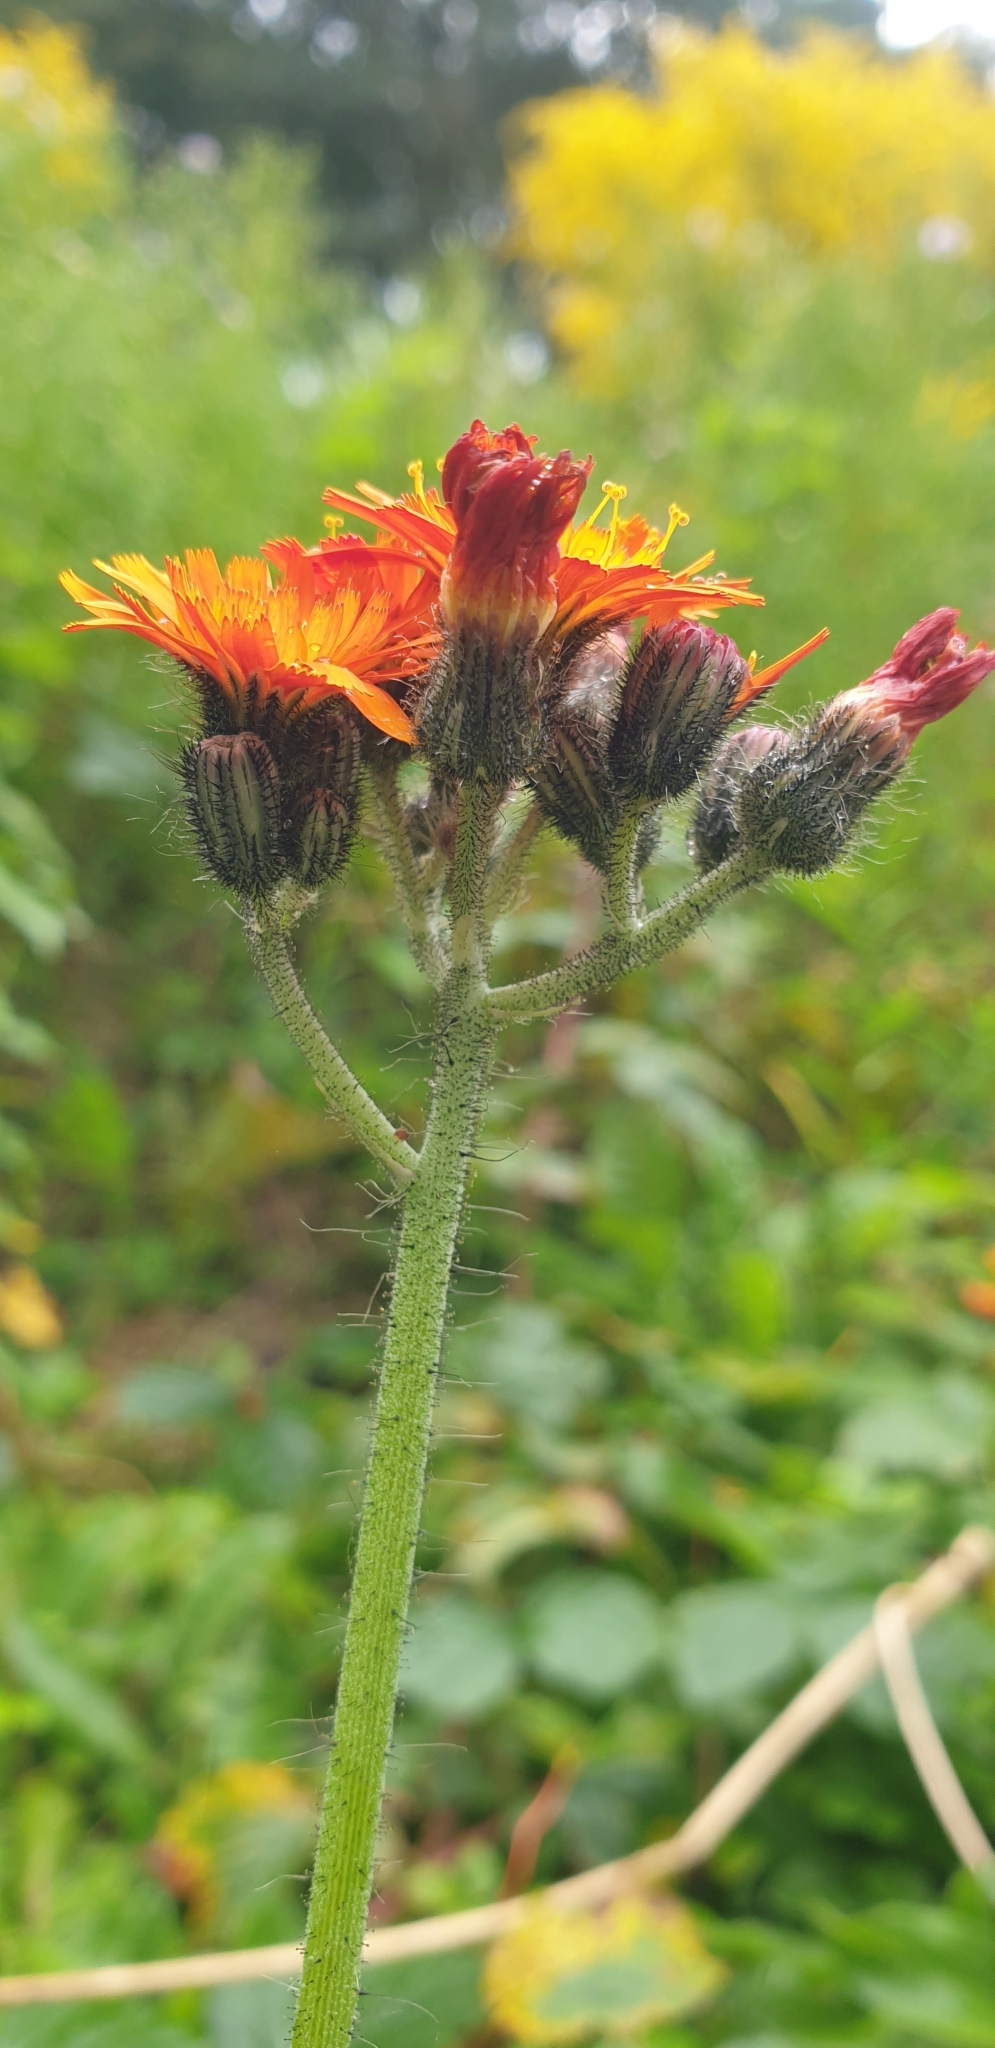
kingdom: Plantae
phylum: Tracheophyta
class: Magnoliopsida
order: Asterales
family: Asteraceae
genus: Pilosella
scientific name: Pilosella aurantiaca
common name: Fox-and-cubs
